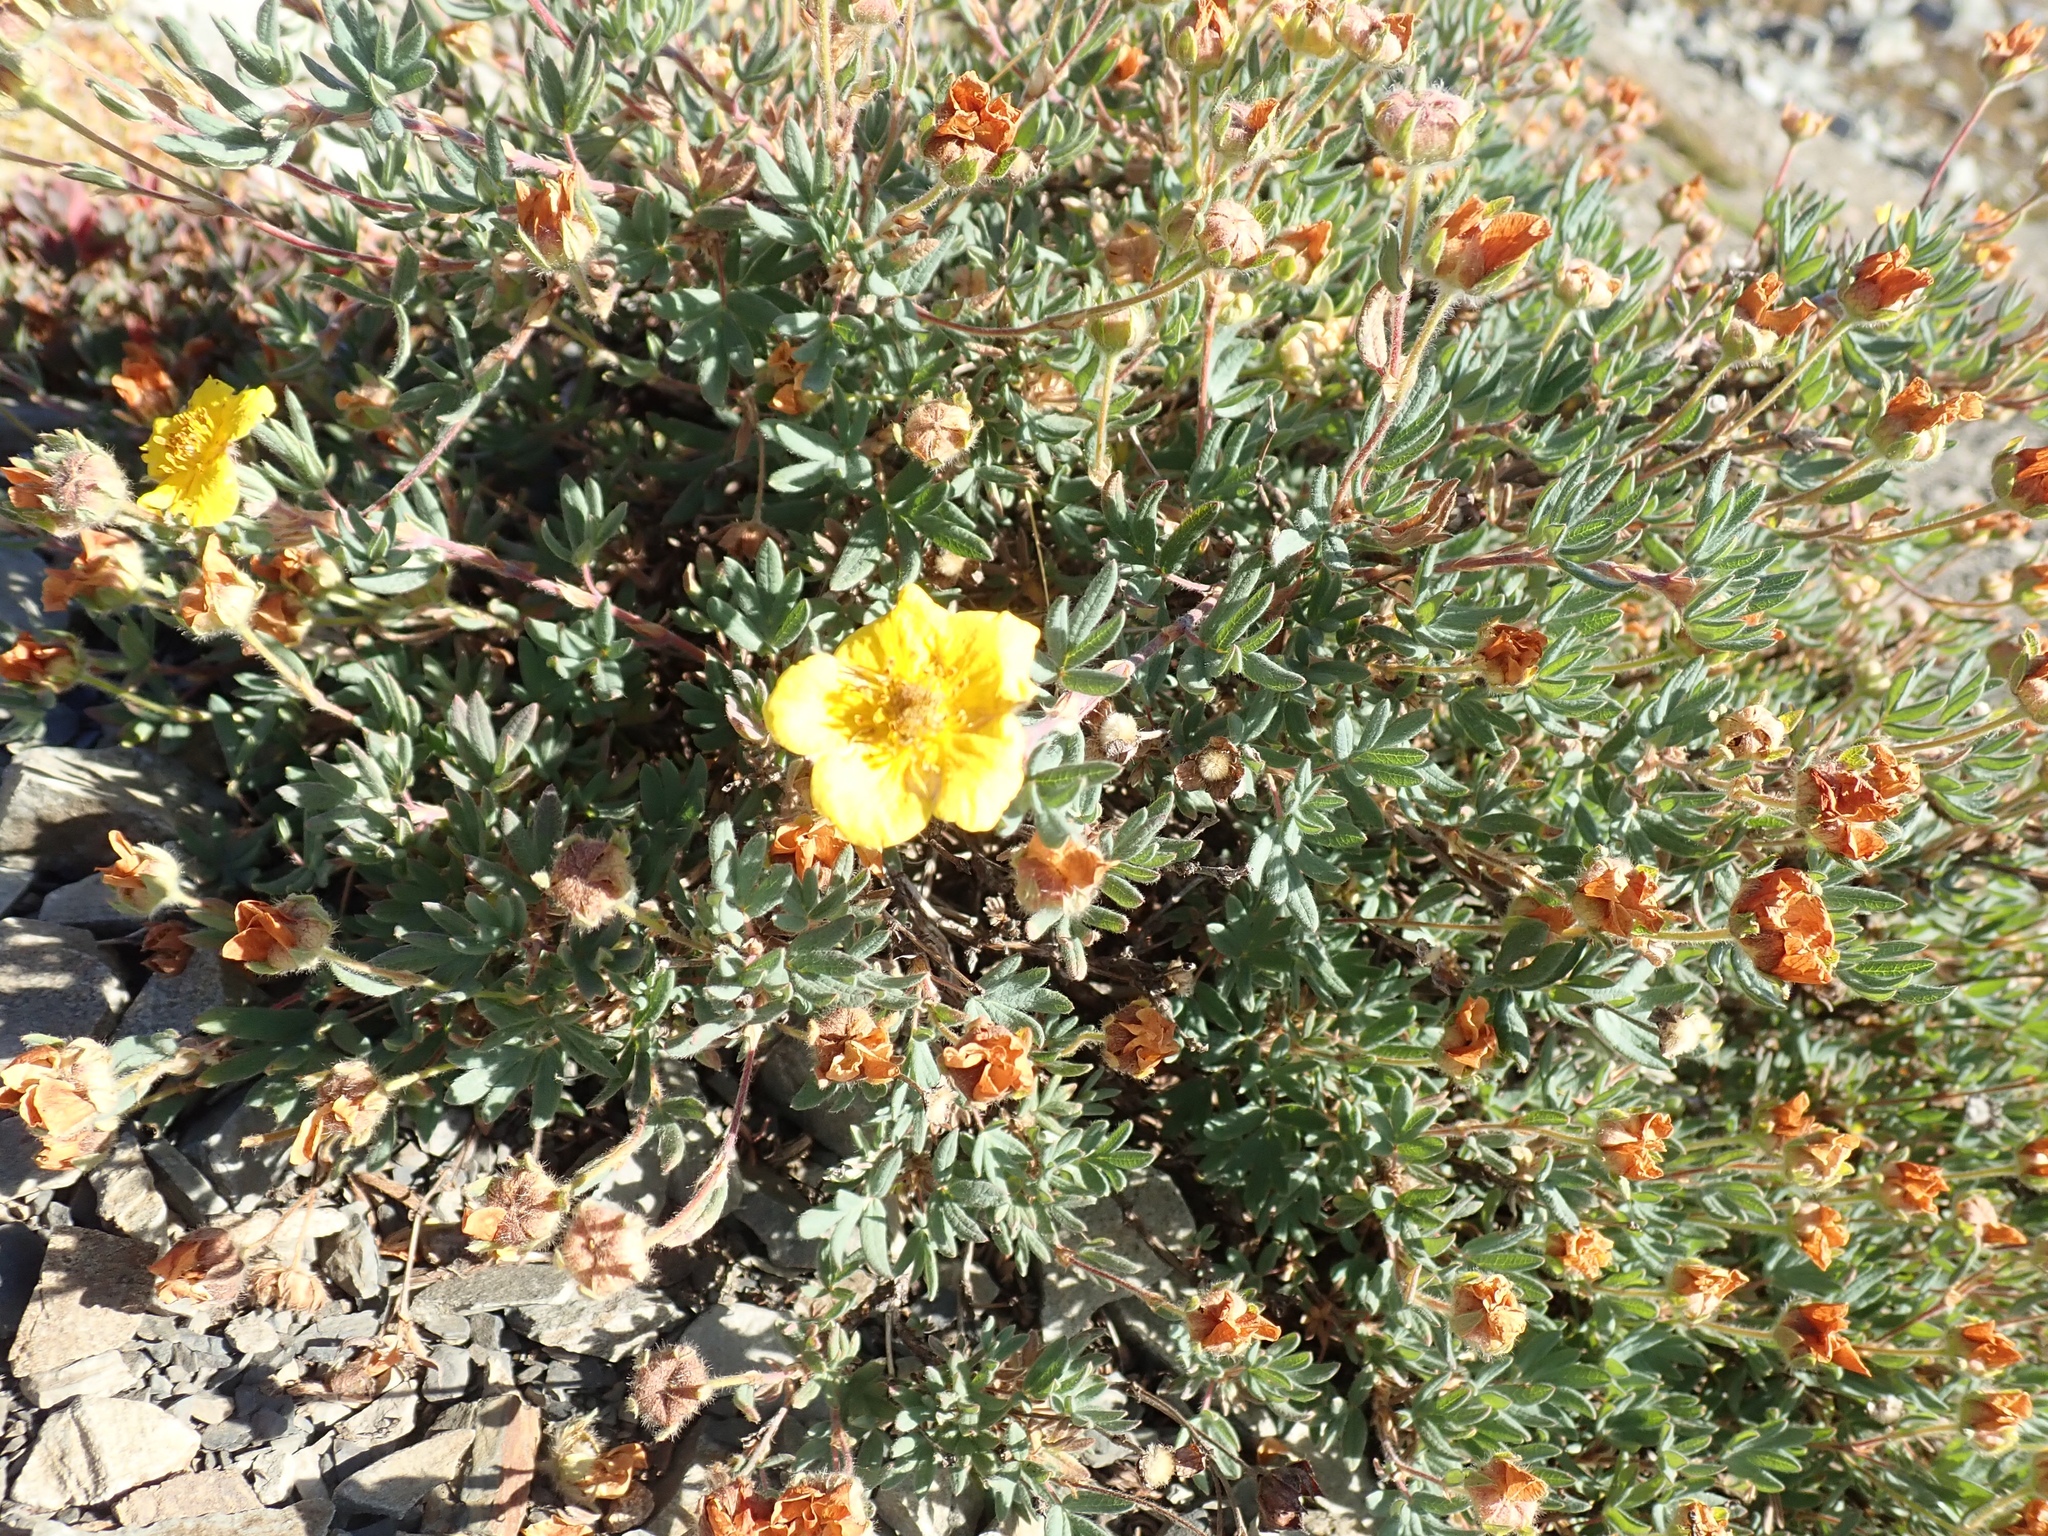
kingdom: Plantae
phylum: Tracheophyta
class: Magnoliopsida
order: Rosales
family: Rosaceae
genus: Dasiphora
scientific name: Dasiphora fruticosa
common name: Shrubby cinquefoil
